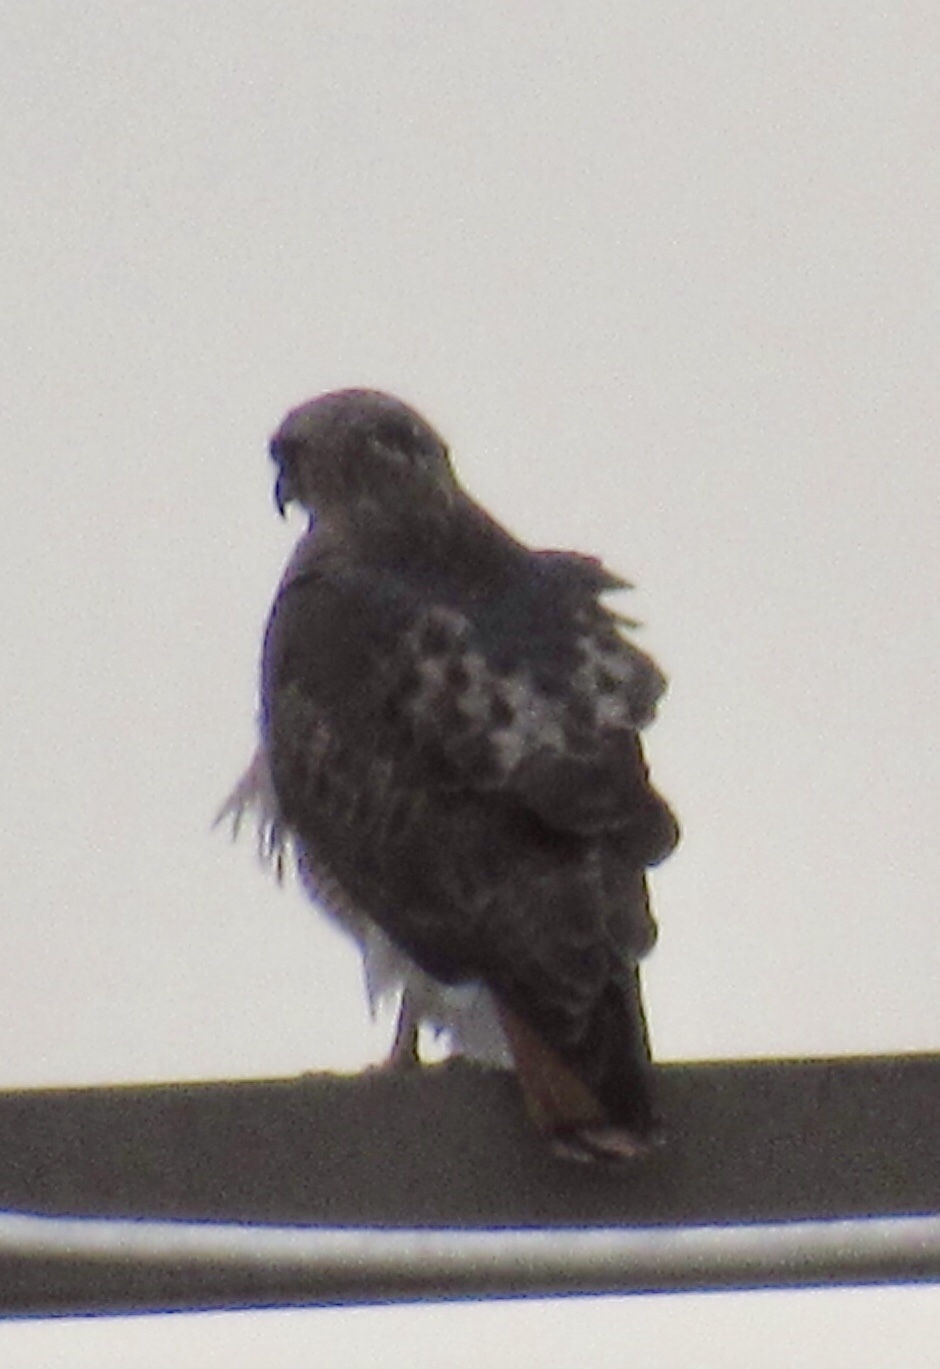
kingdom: Animalia
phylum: Chordata
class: Aves
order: Accipitriformes
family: Accipitridae
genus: Buteo
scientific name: Buteo jamaicensis
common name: Red-tailed hawk
